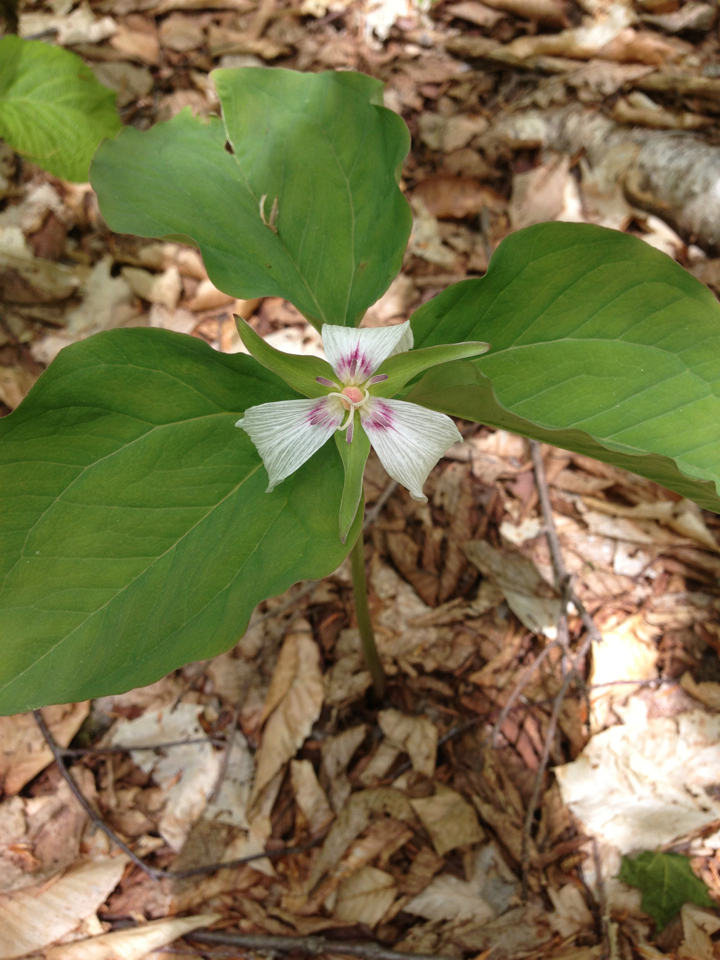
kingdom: Plantae
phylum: Tracheophyta
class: Liliopsida
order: Liliales
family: Melanthiaceae
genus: Trillium
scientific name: Trillium undulatum
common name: Paint trillium
